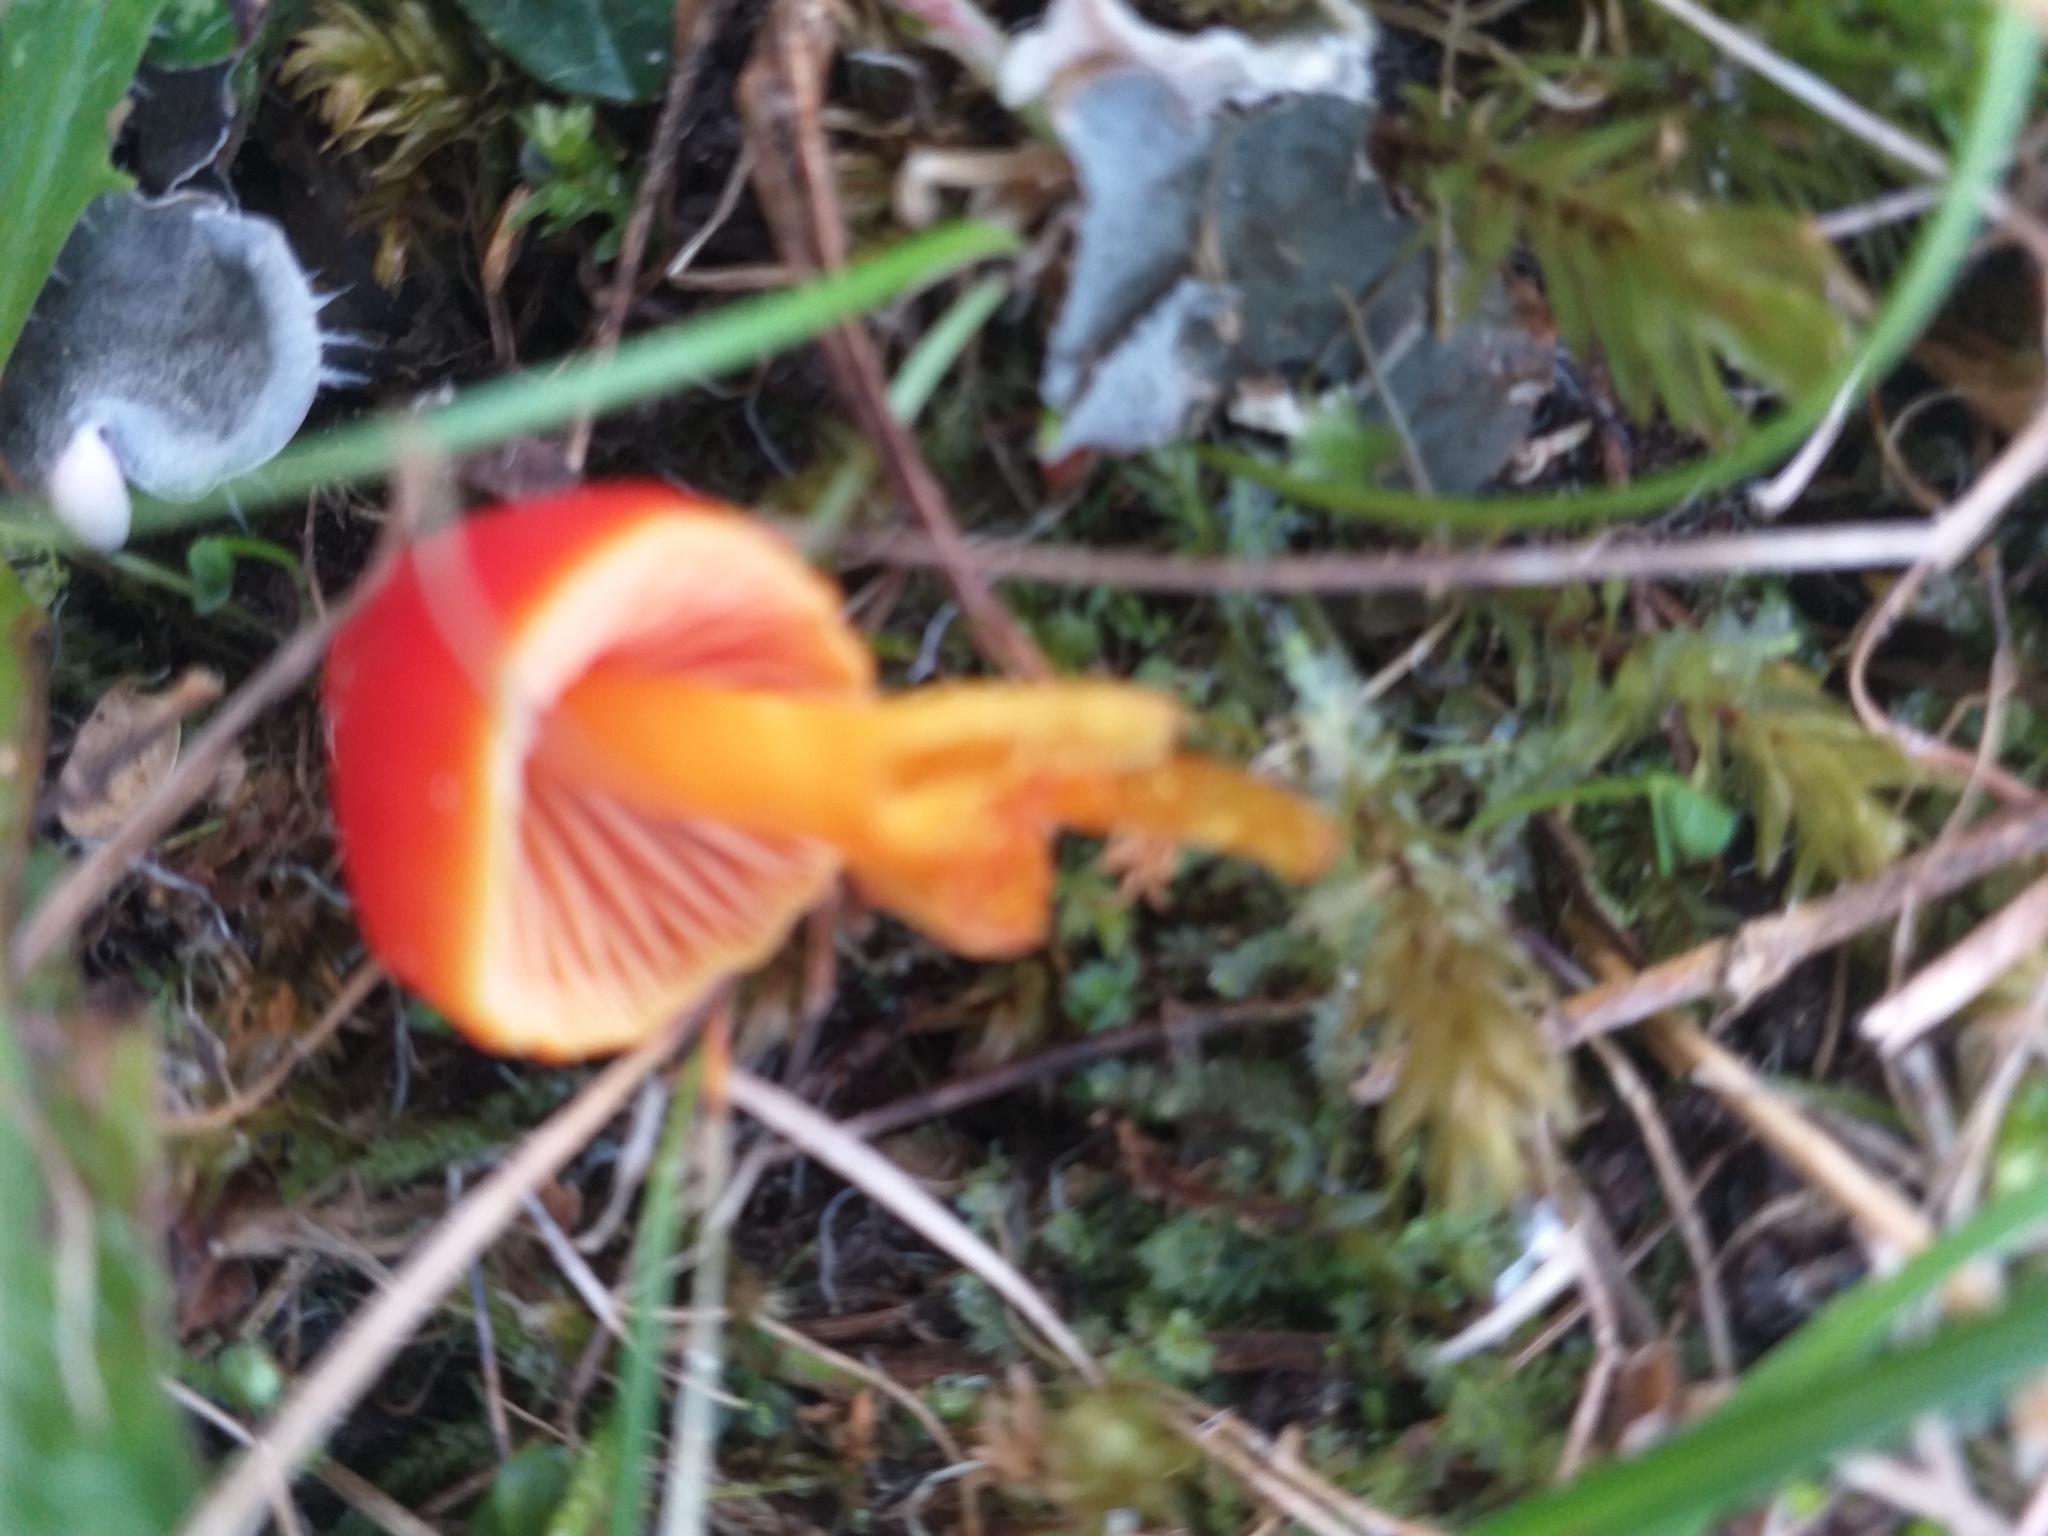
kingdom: Fungi
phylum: Basidiomycota
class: Agaricomycetes
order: Agaricales
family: Hygrophoraceae
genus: Hygrocybe
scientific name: Hygrocybe coccinea
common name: Scarlet hood
